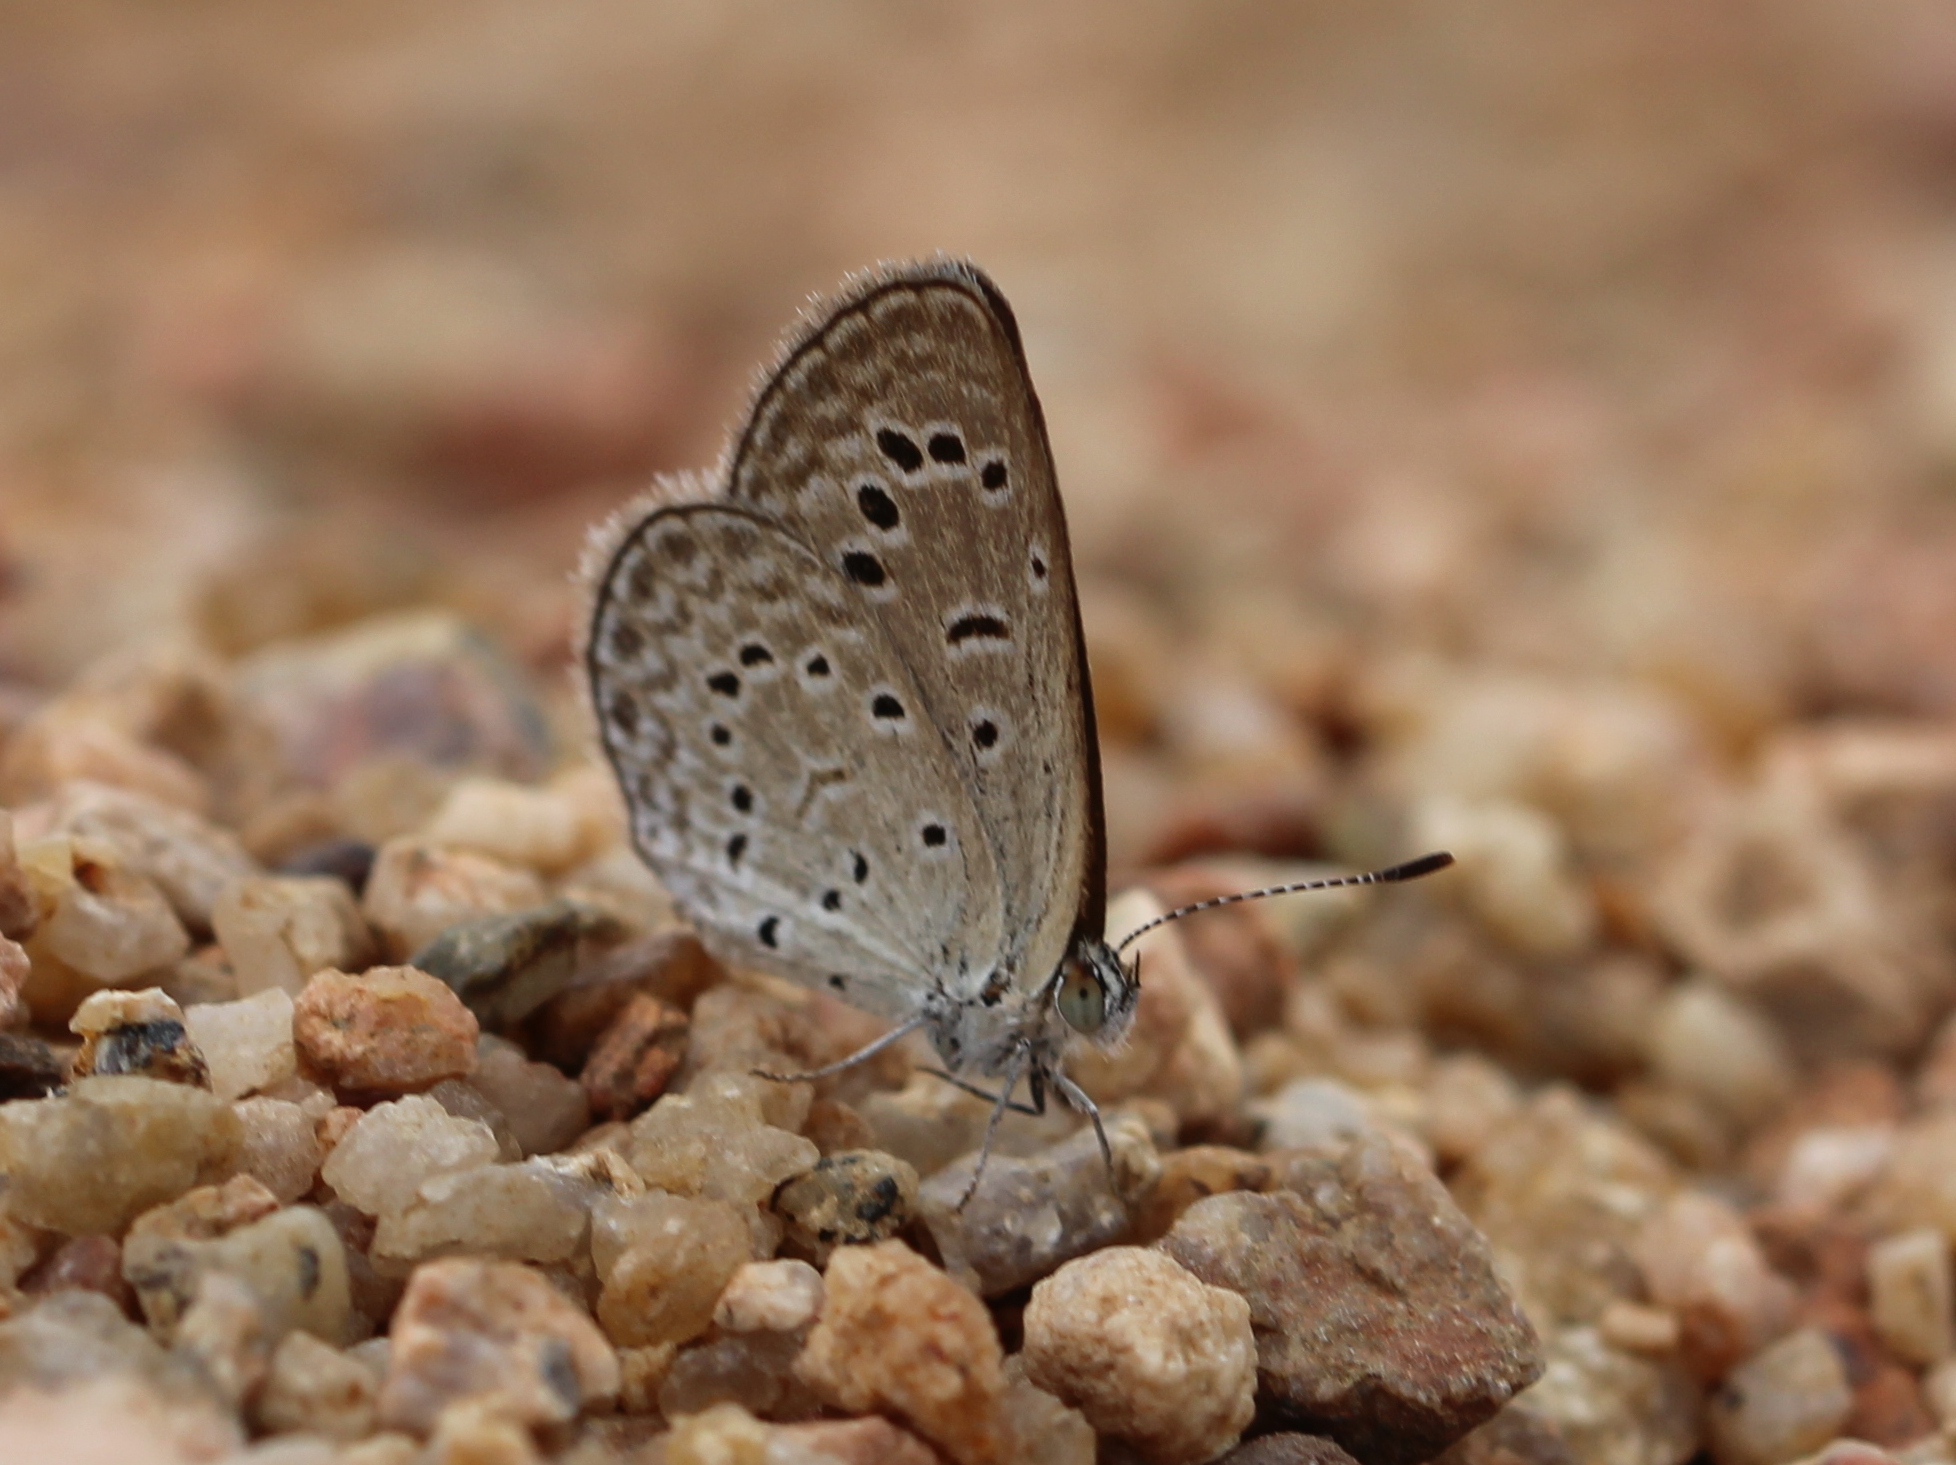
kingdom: Animalia
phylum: Arthropoda
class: Insecta
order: Lepidoptera
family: Lycaenidae
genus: Zizeeria
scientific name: Zizeeria karsandra
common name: Dark grass blue
